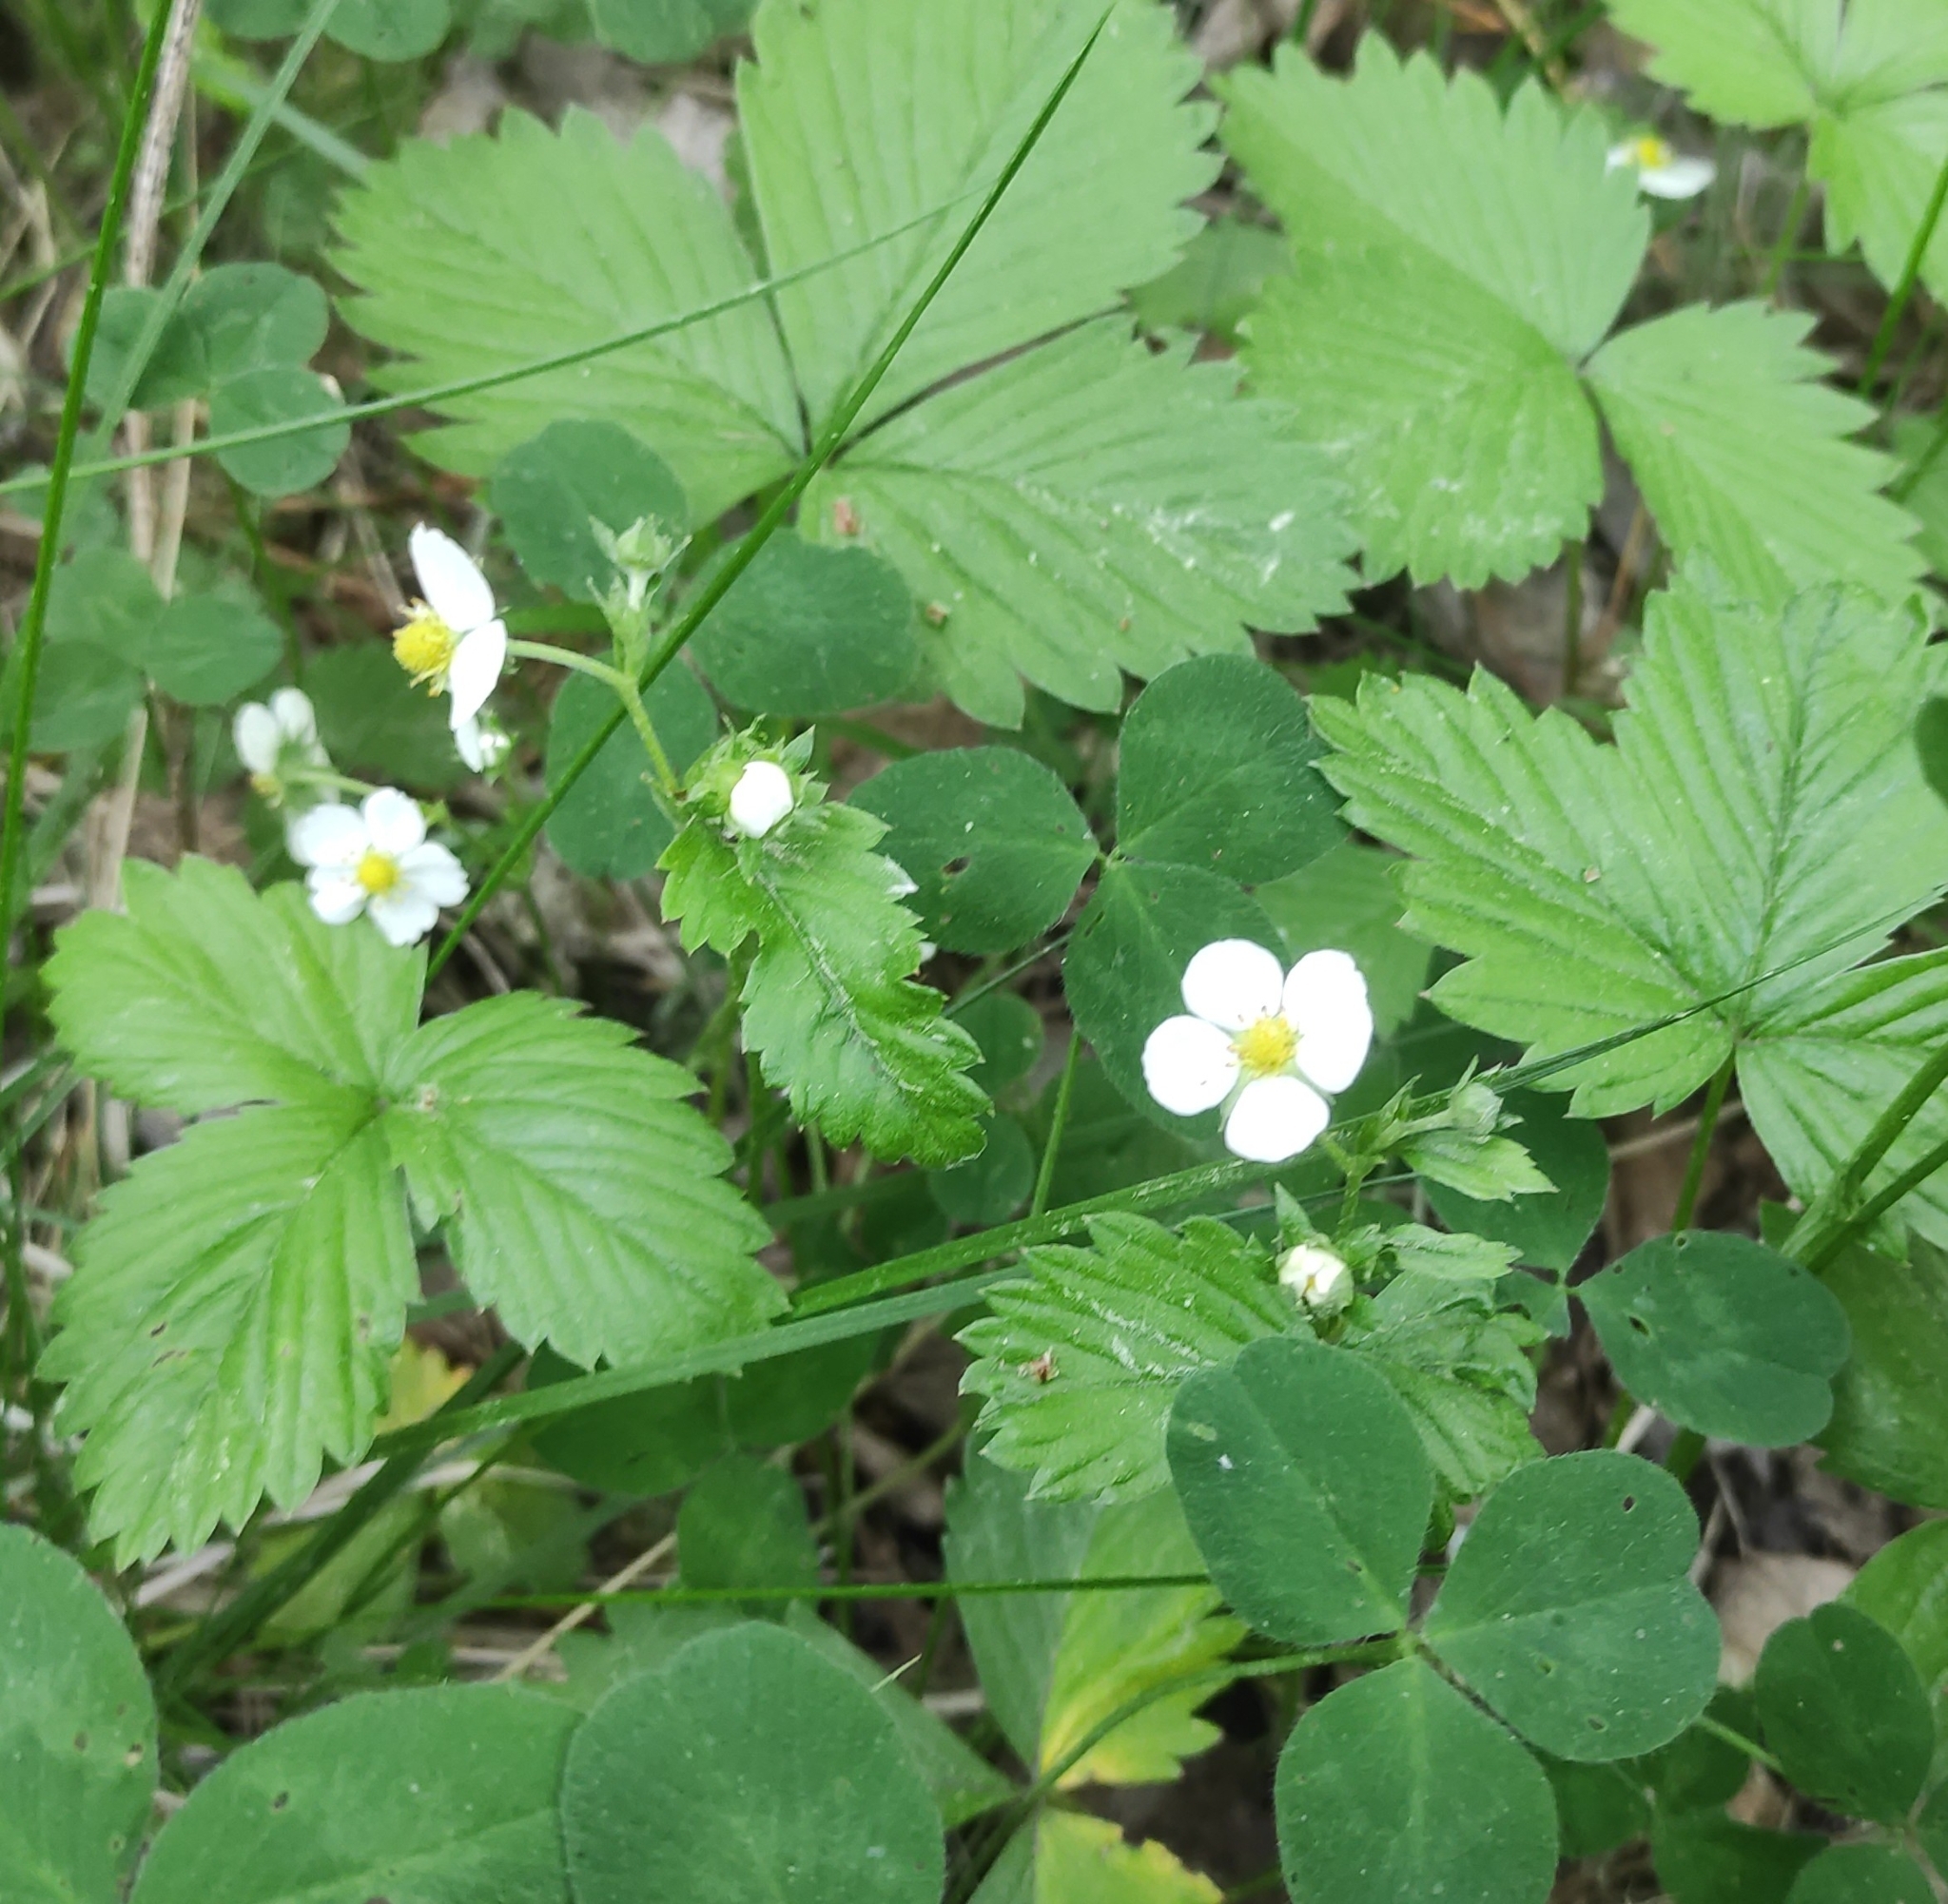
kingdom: Plantae
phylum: Tracheophyta
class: Magnoliopsida
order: Rosales
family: Rosaceae
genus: Fragaria
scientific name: Fragaria vesca
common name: Wild strawberry
